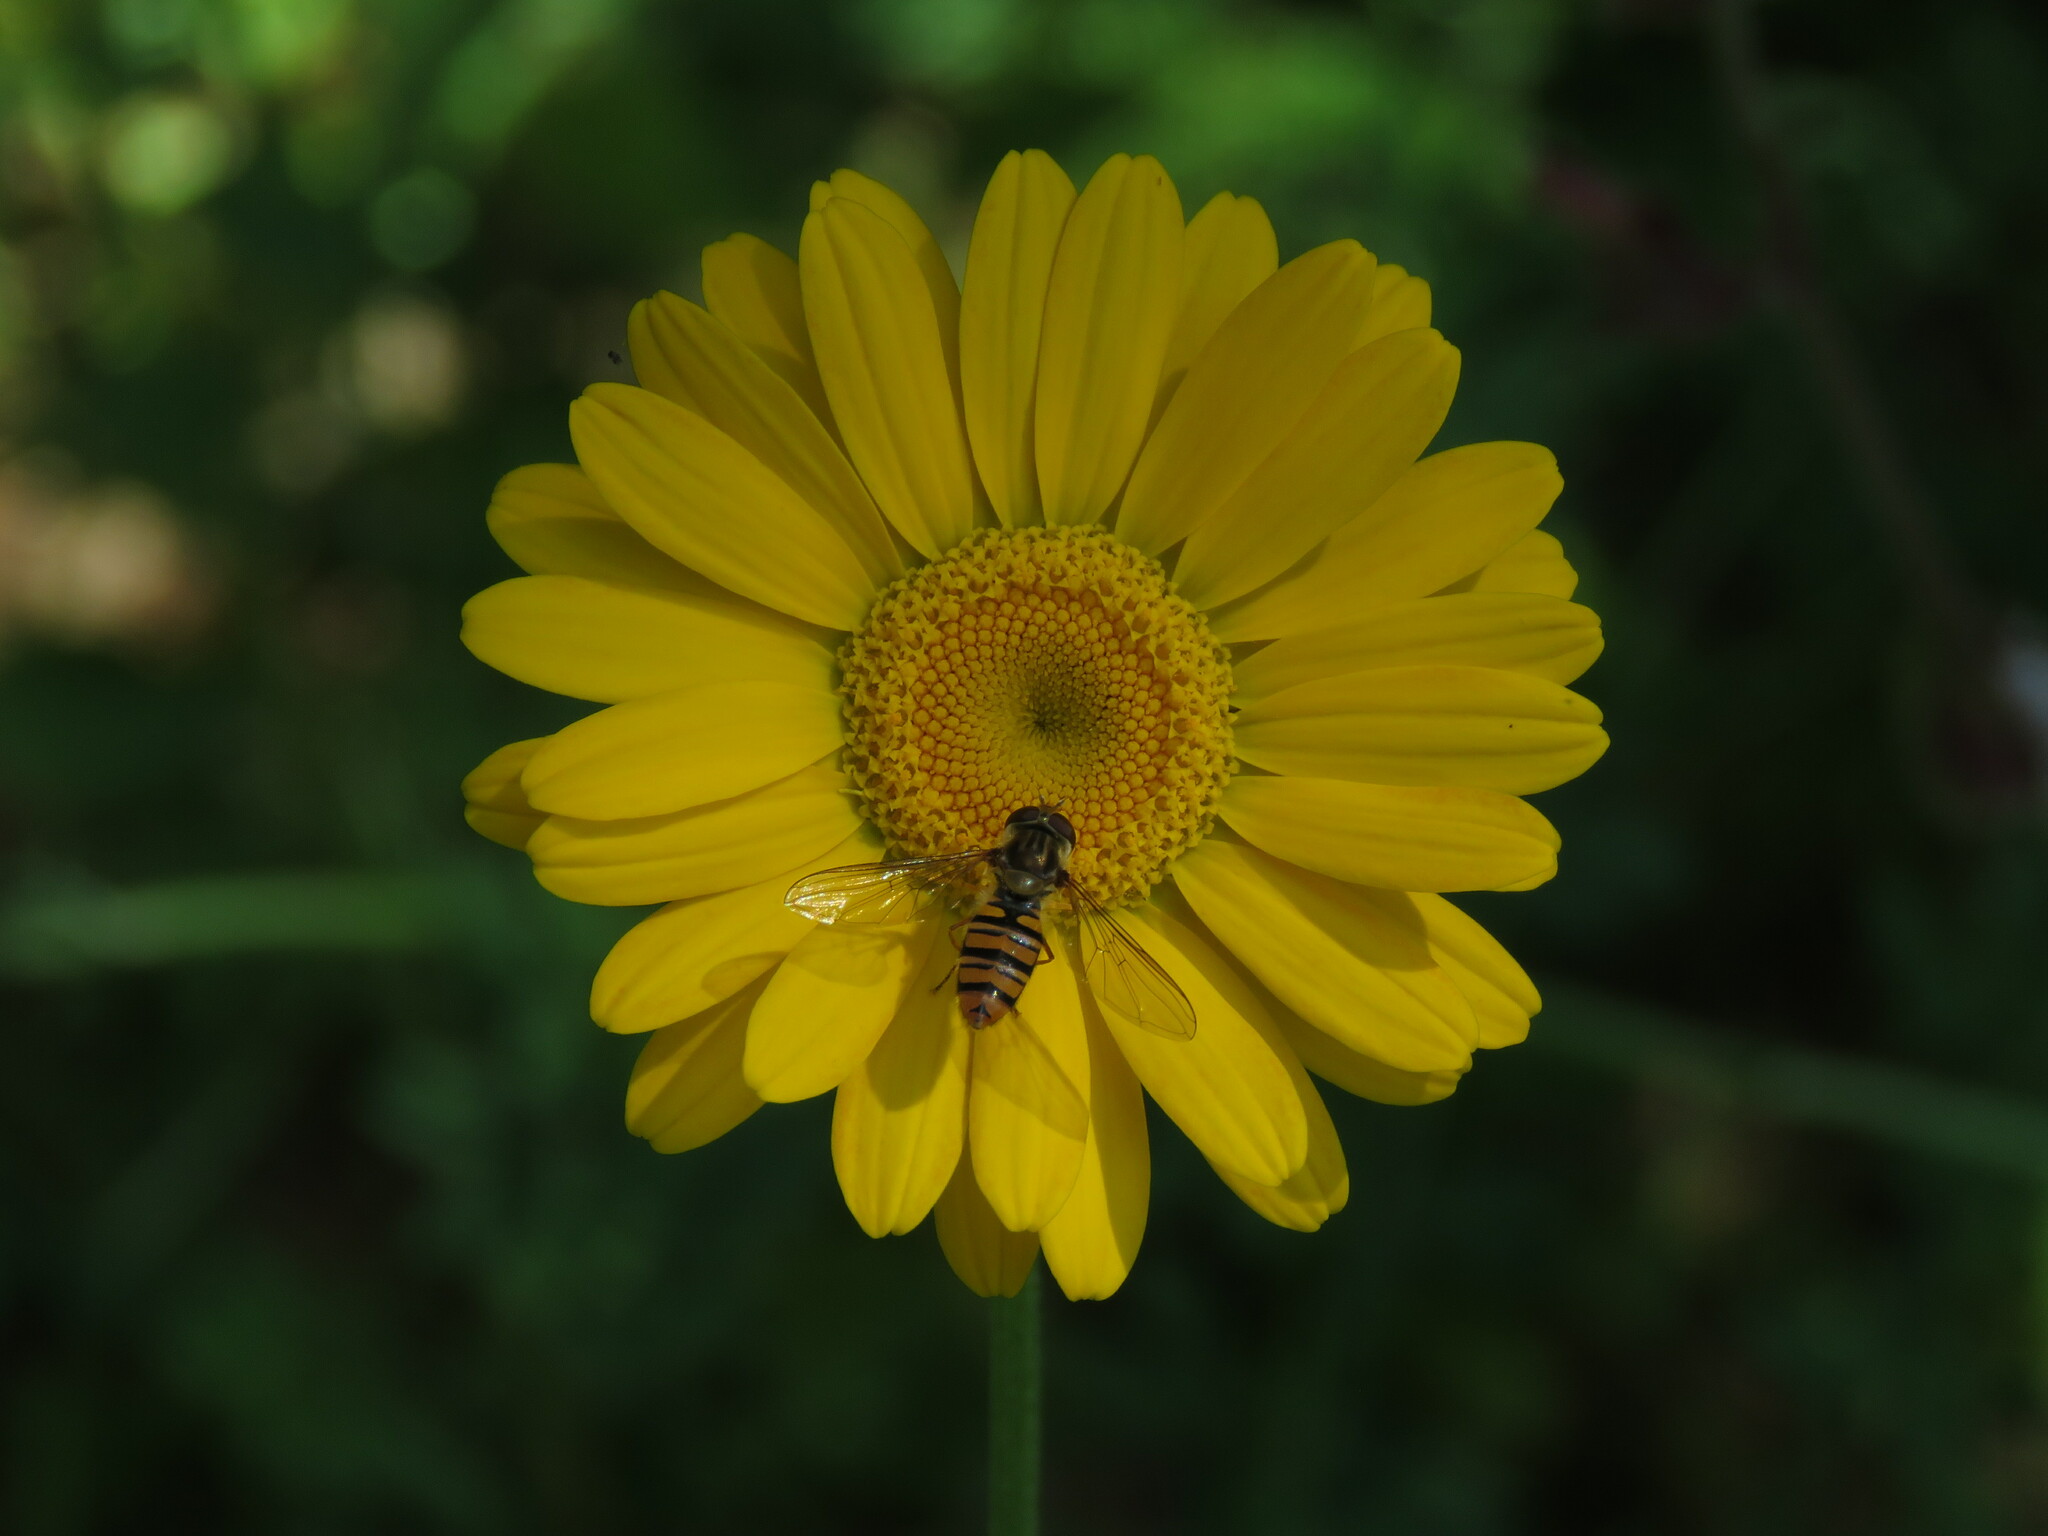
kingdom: Animalia
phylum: Arthropoda
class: Insecta
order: Diptera
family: Syrphidae
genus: Episyrphus
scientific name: Episyrphus balteatus
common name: Marmalade hoverfly
